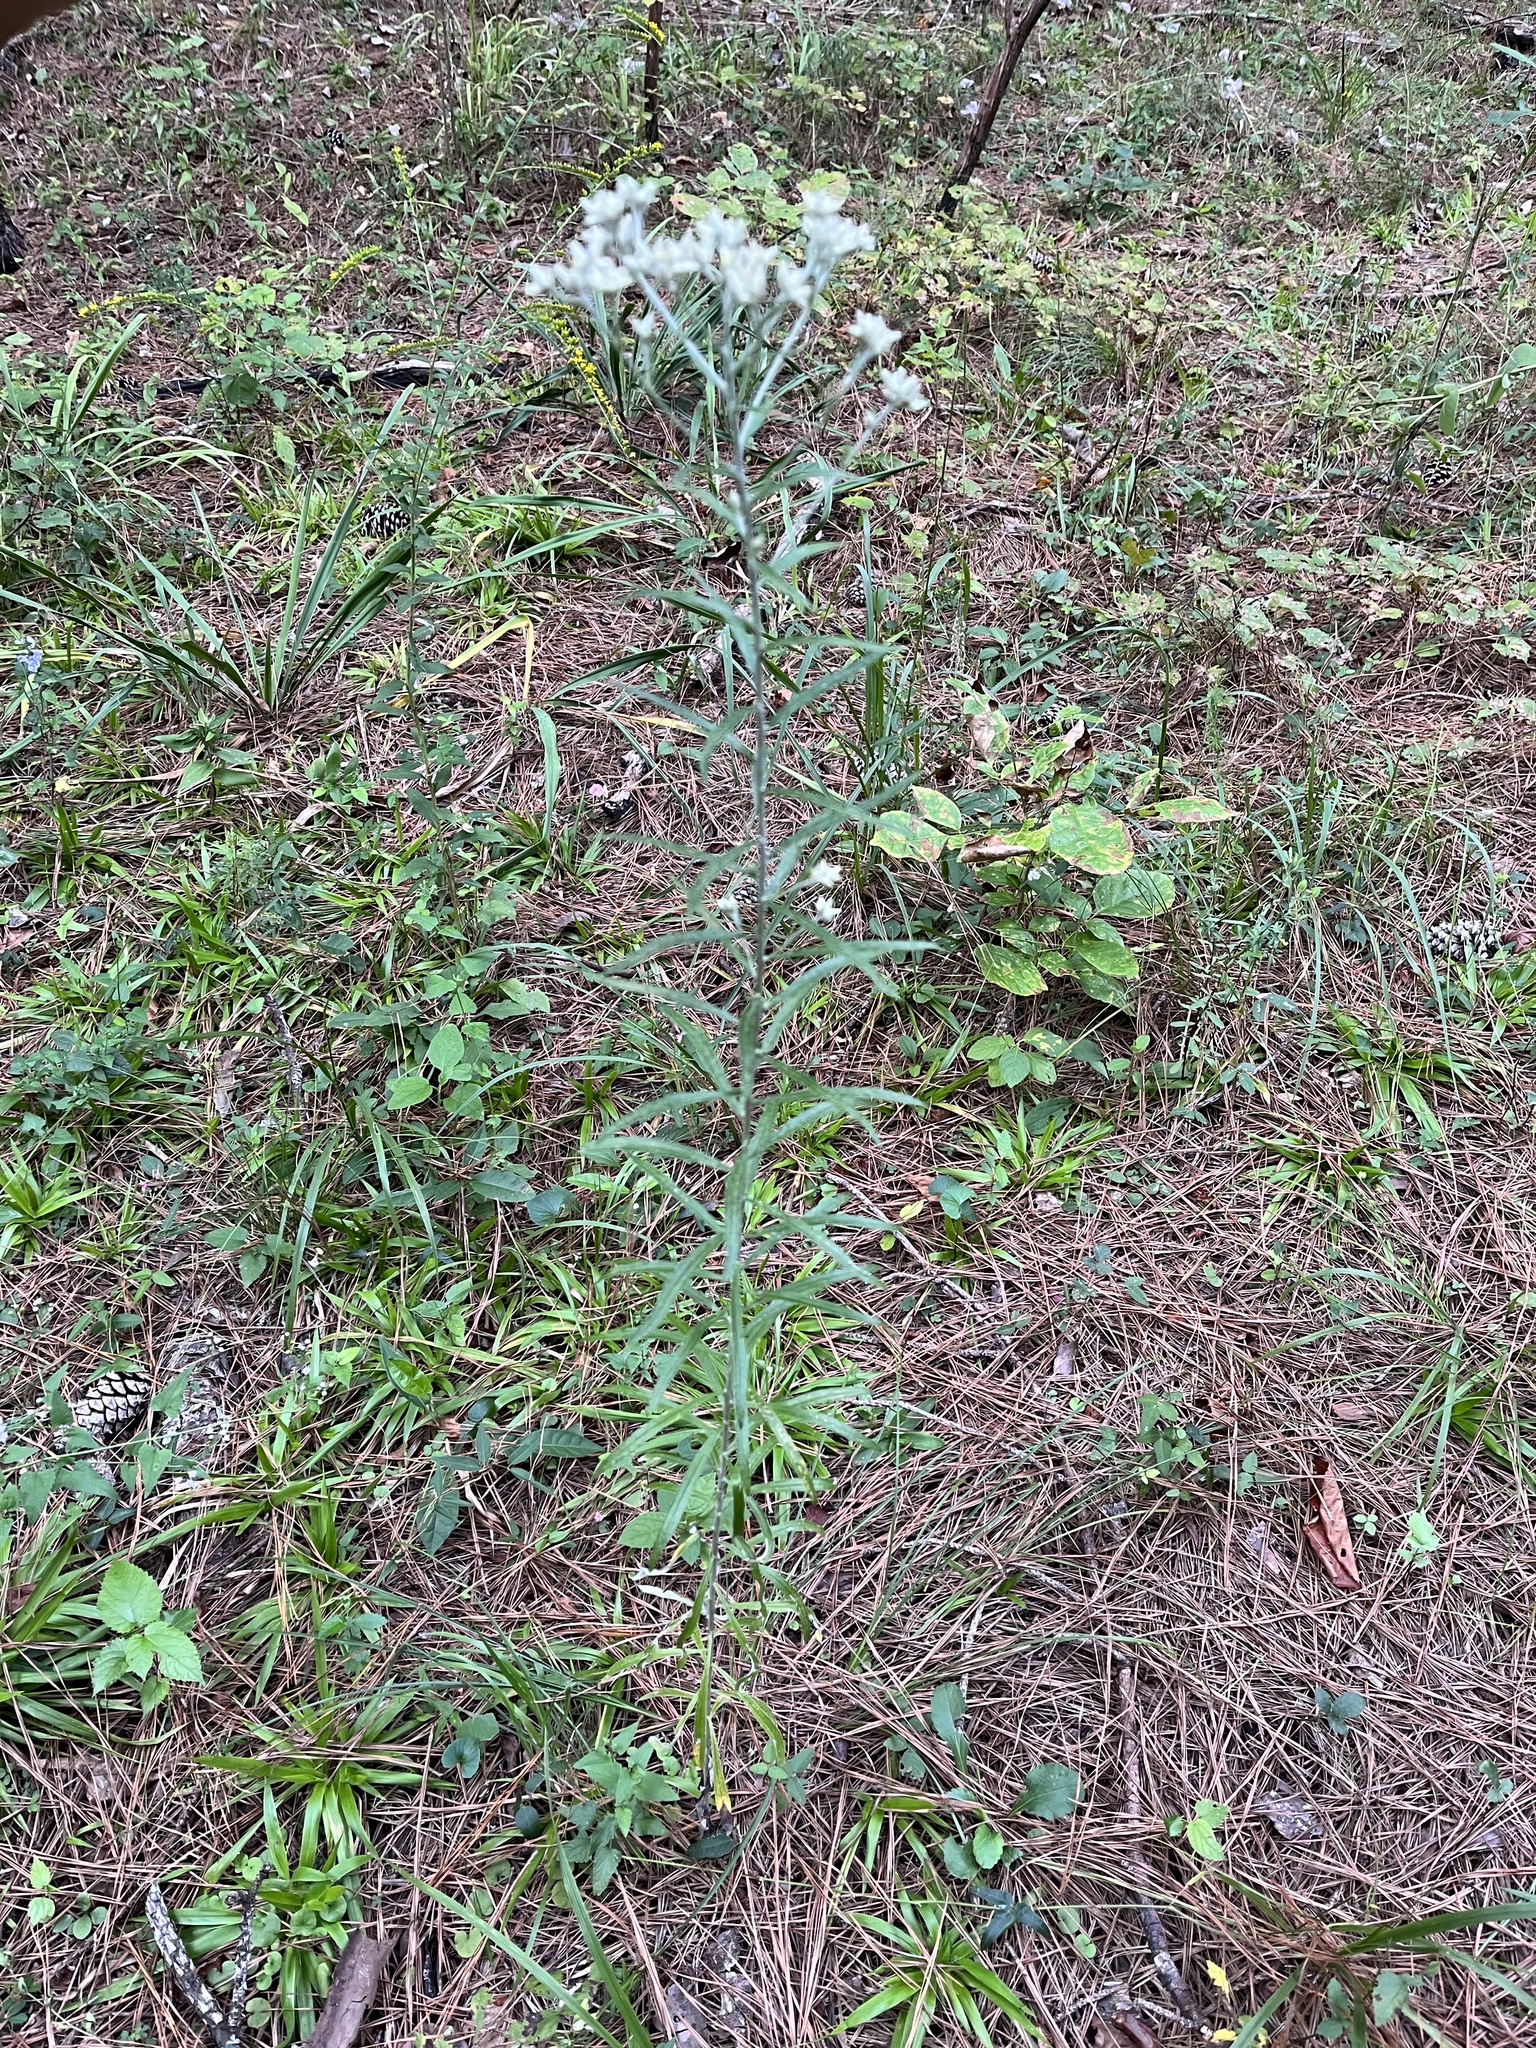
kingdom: Plantae
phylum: Tracheophyta
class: Magnoliopsida
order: Asterales
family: Asteraceae
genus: Pseudognaphalium
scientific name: Pseudognaphalium obtusifolium
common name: Eastern rabbit-tobacco
